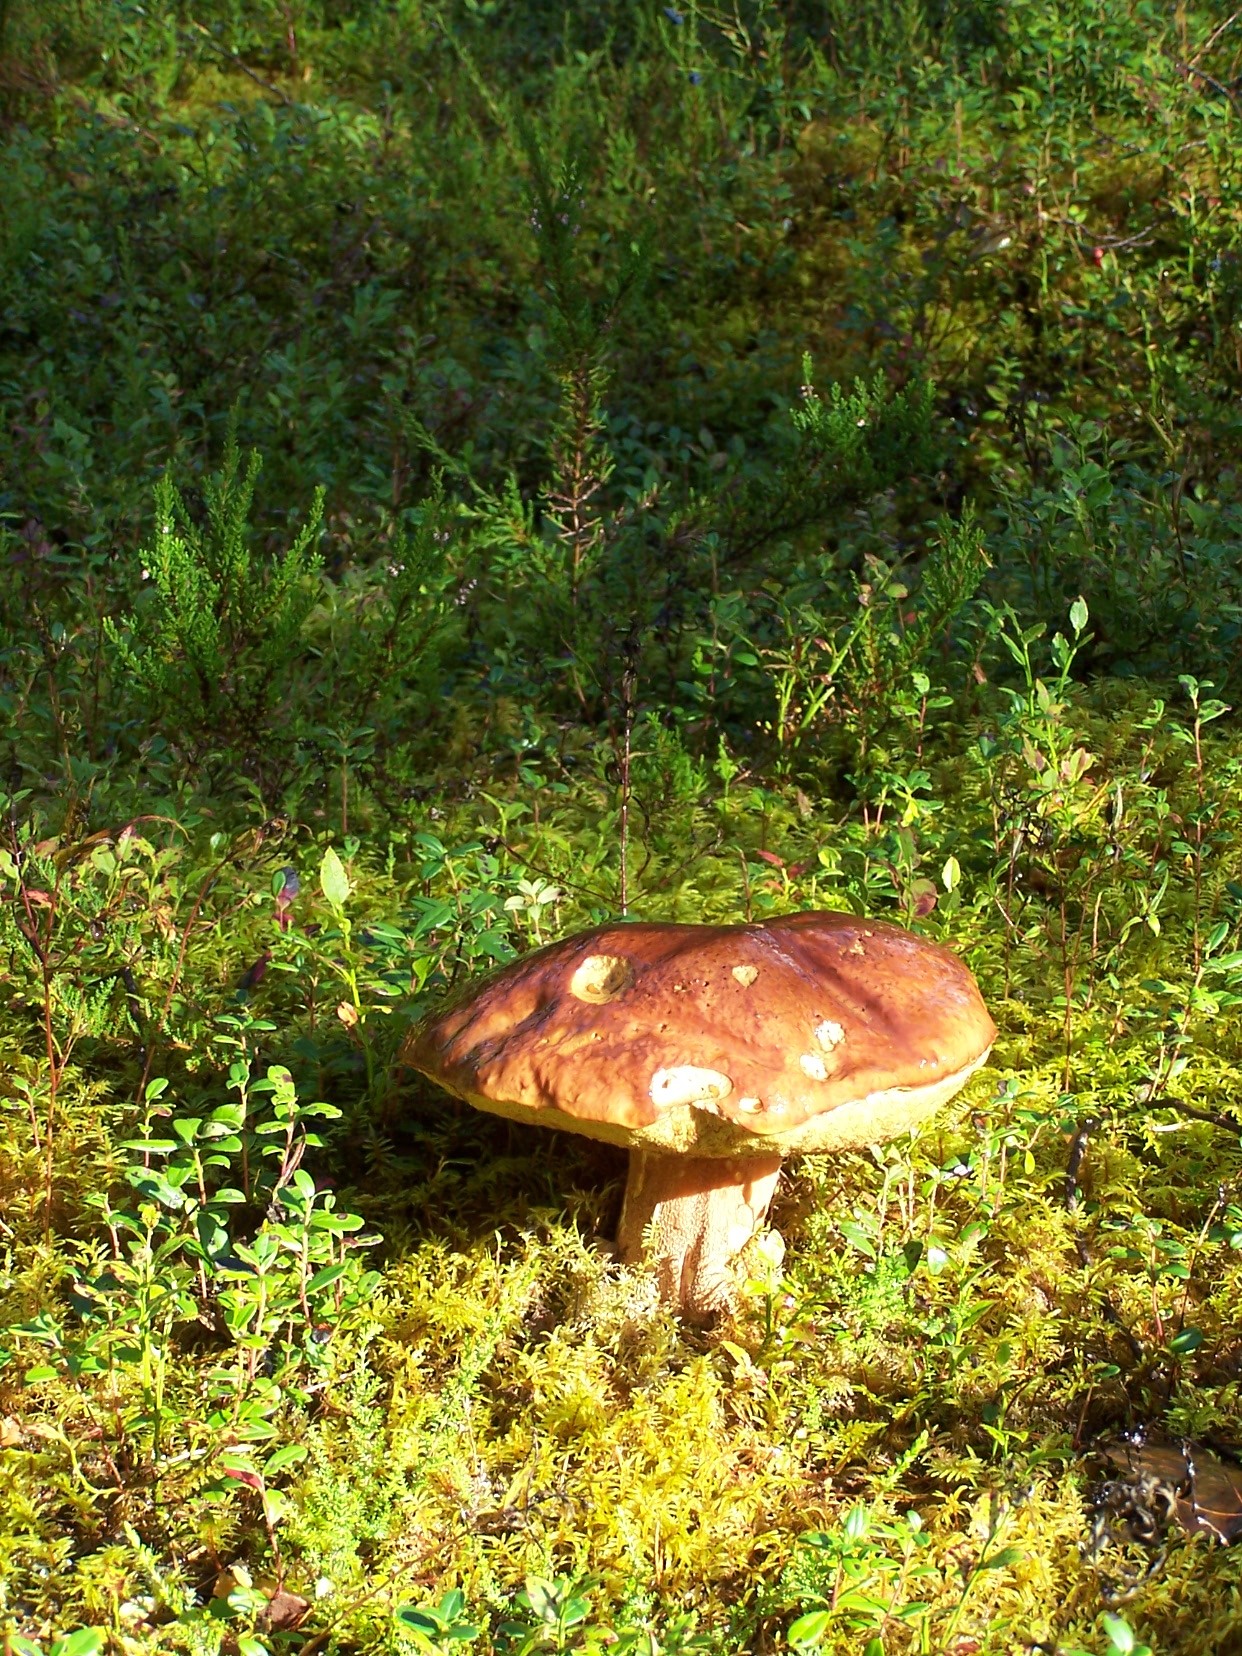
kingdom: Fungi
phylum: Basidiomycota
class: Agaricomycetes
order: Boletales
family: Boletaceae
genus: Boletus
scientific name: Boletus edulis
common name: Cep
